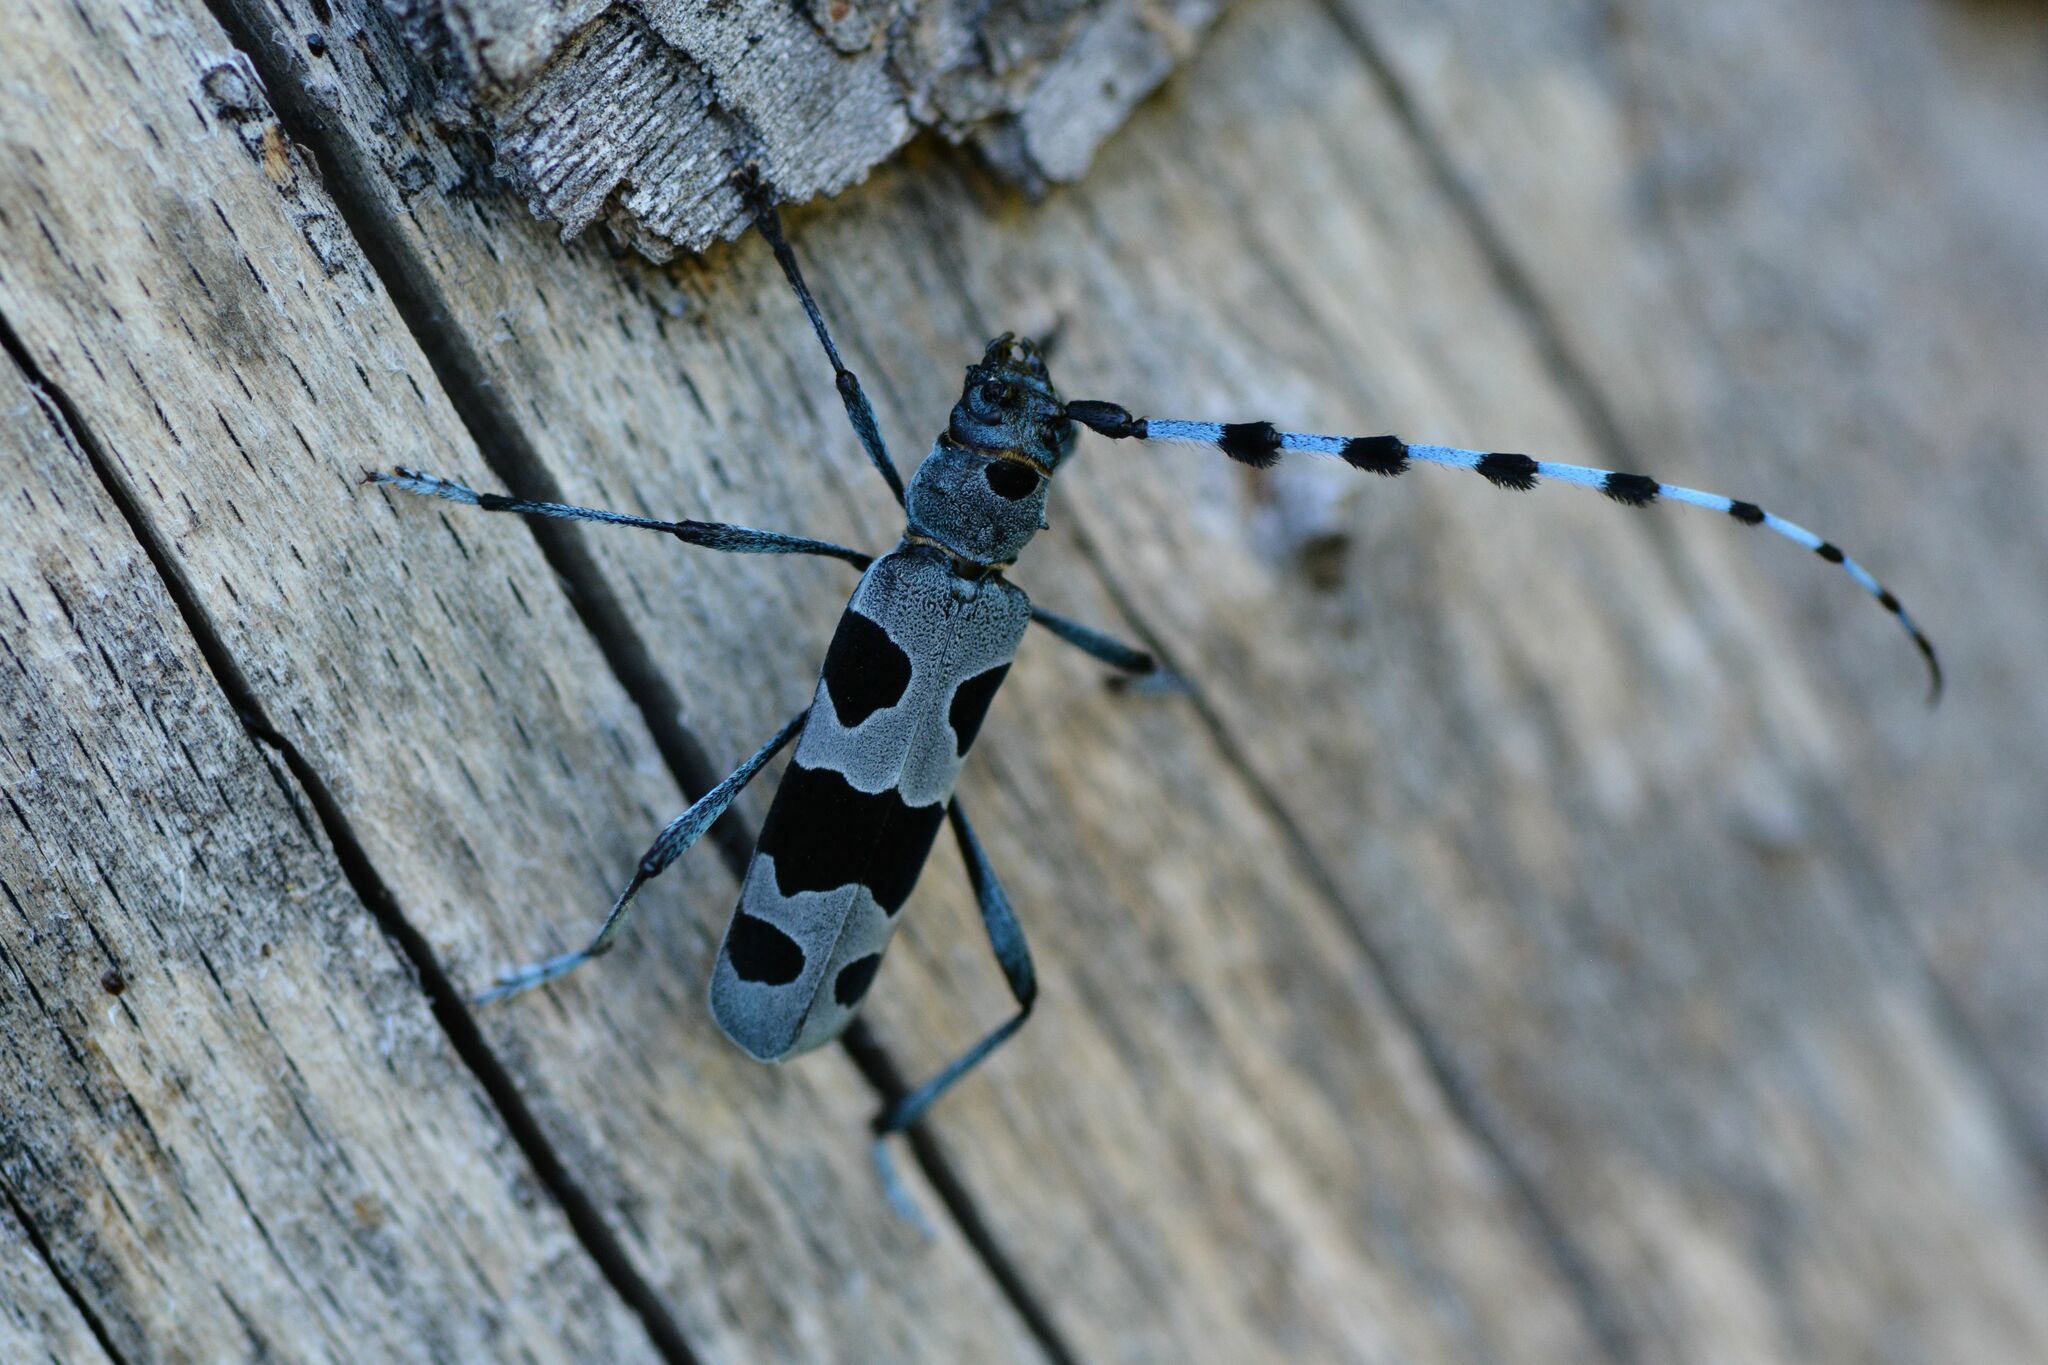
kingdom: Animalia
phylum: Arthropoda
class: Insecta
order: Coleoptera
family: Cerambycidae
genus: Rosalia
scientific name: Rosalia alpina
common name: Rosalia longicorn
